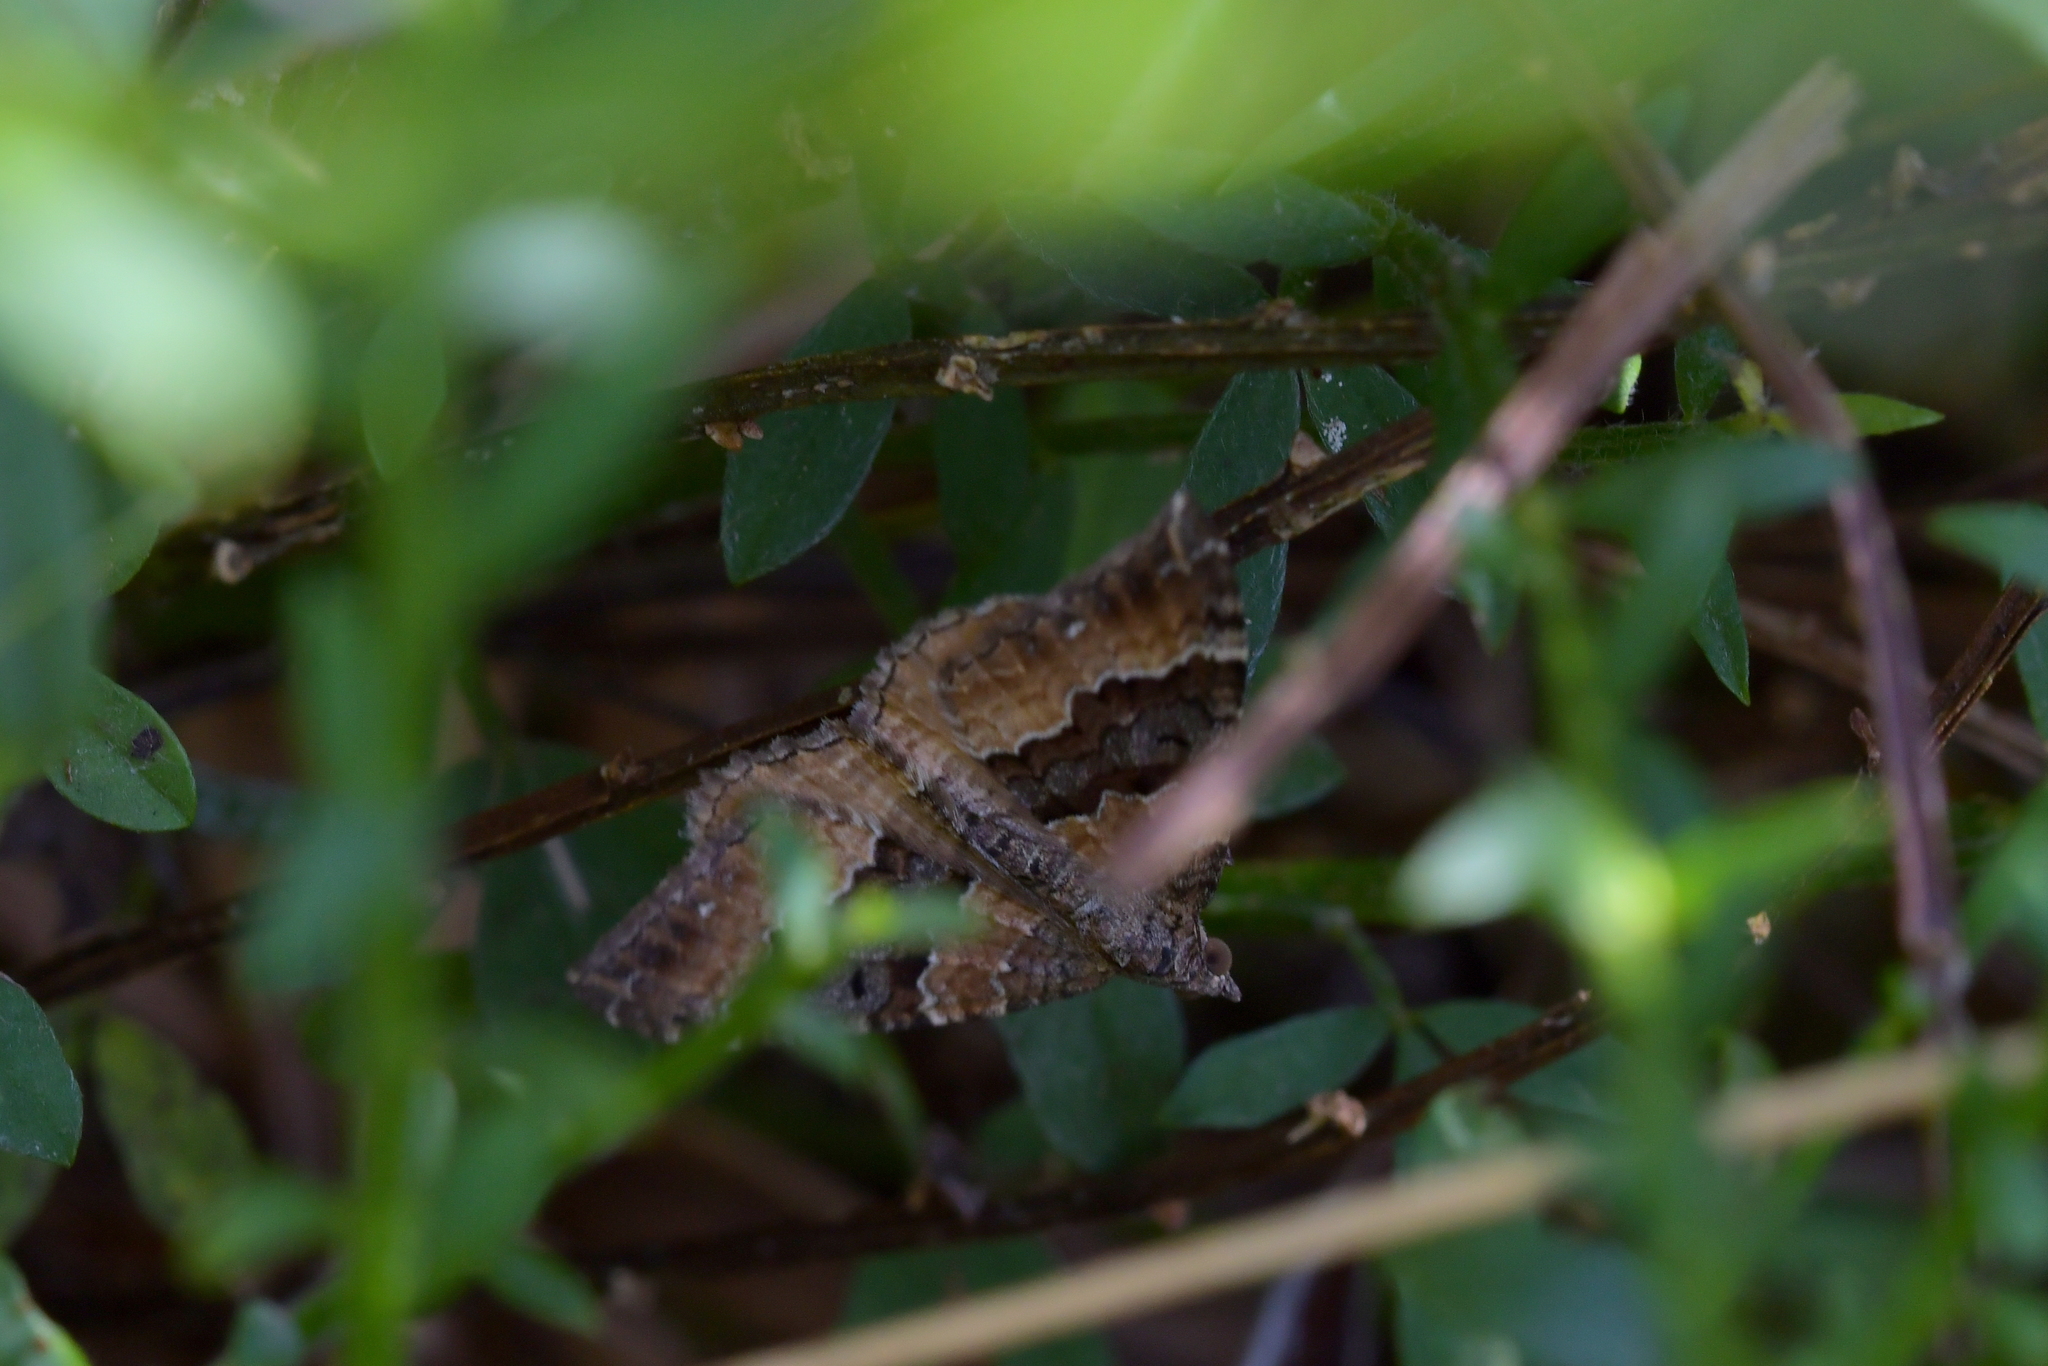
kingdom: Animalia
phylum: Arthropoda
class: Insecta
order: Lepidoptera
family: Geometridae
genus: Hydriomena
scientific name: Hydriomena deltoidata
